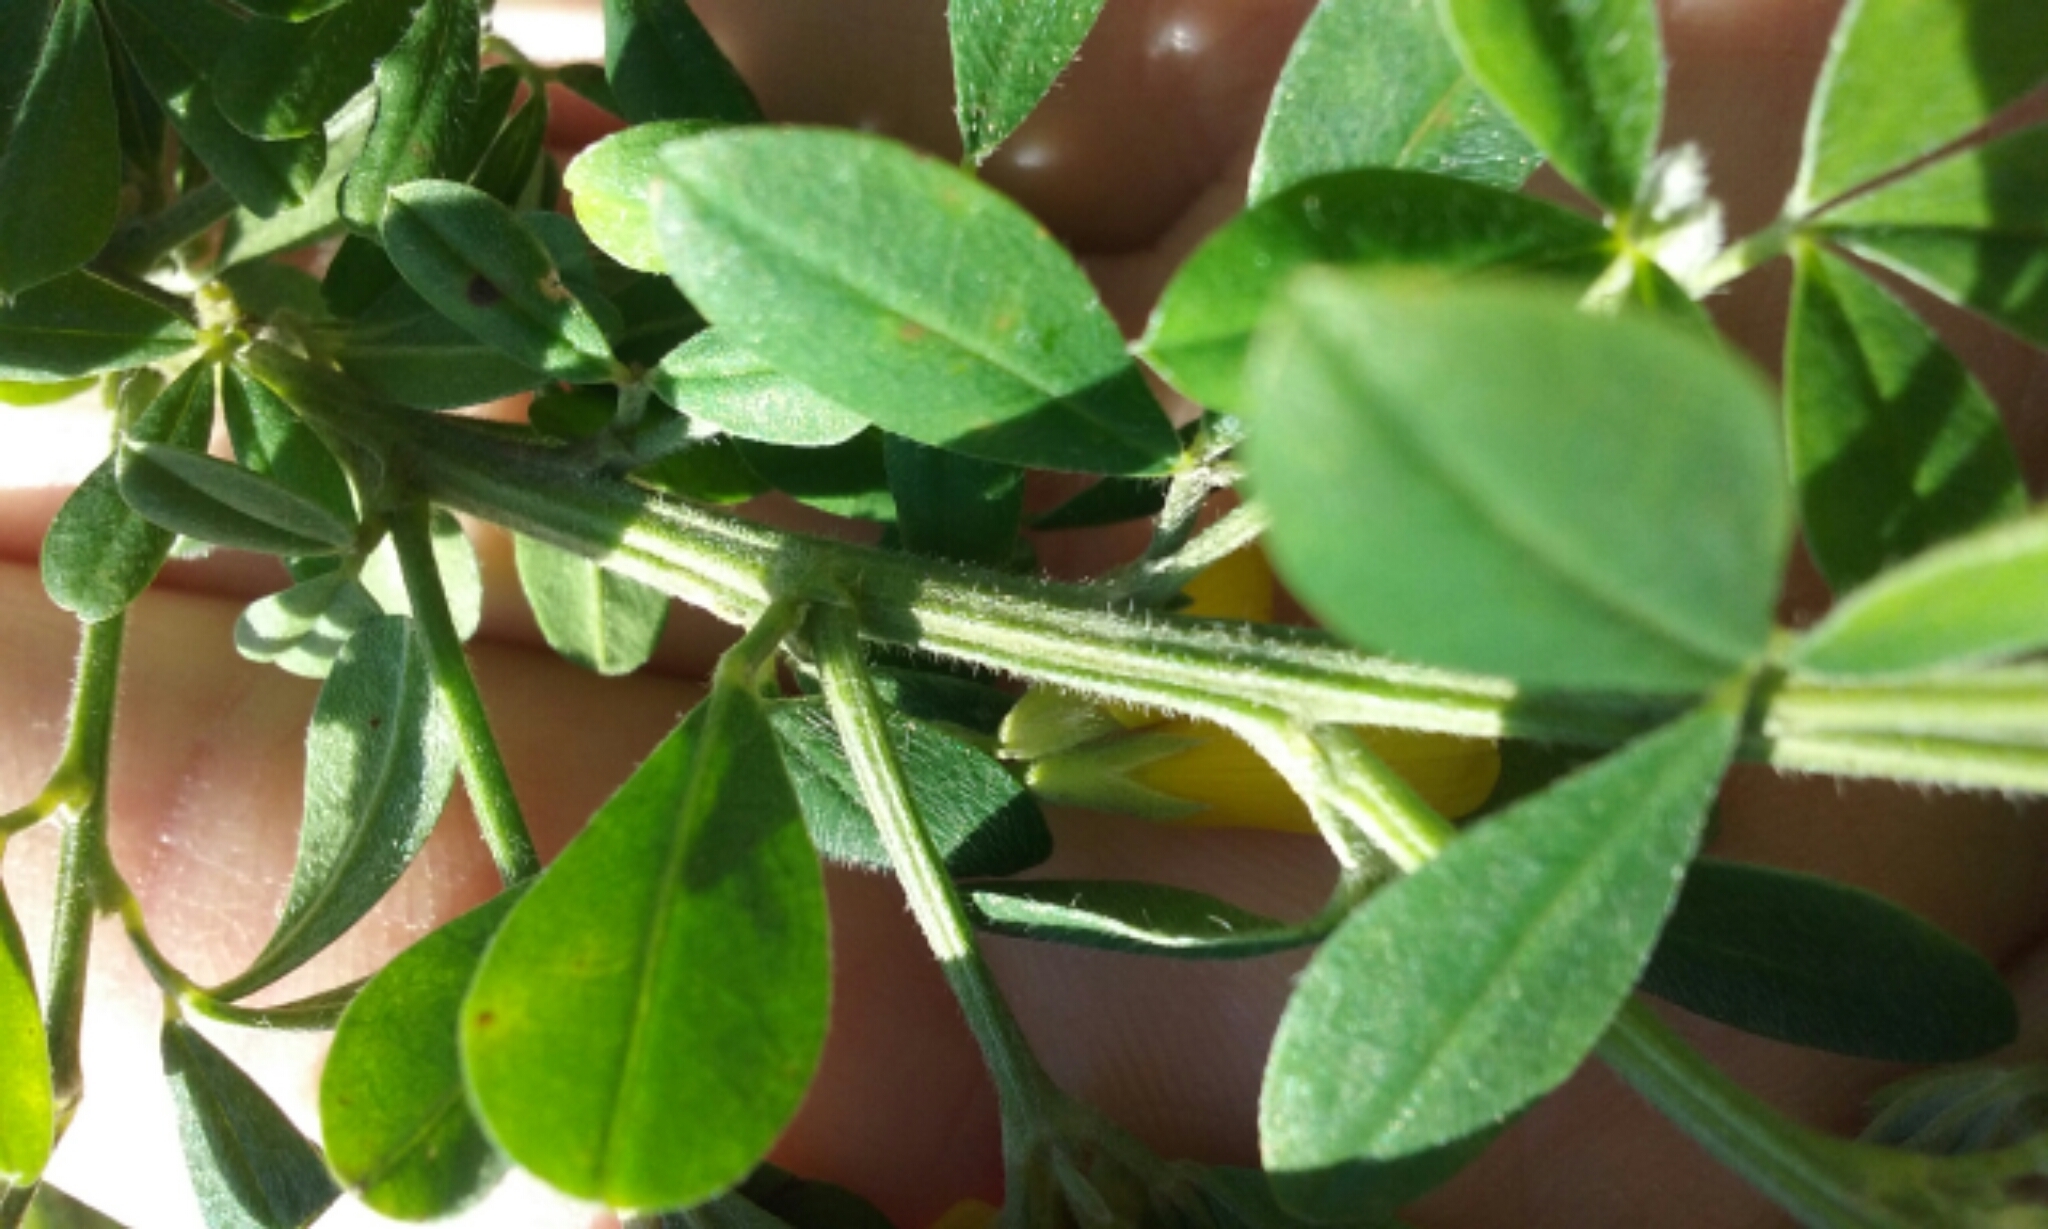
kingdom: Plantae
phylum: Tracheophyta
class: Magnoliopsida
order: Fabales
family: Fabaceae
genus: Genista
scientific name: Genista monspessulana
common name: Montpellier broom
